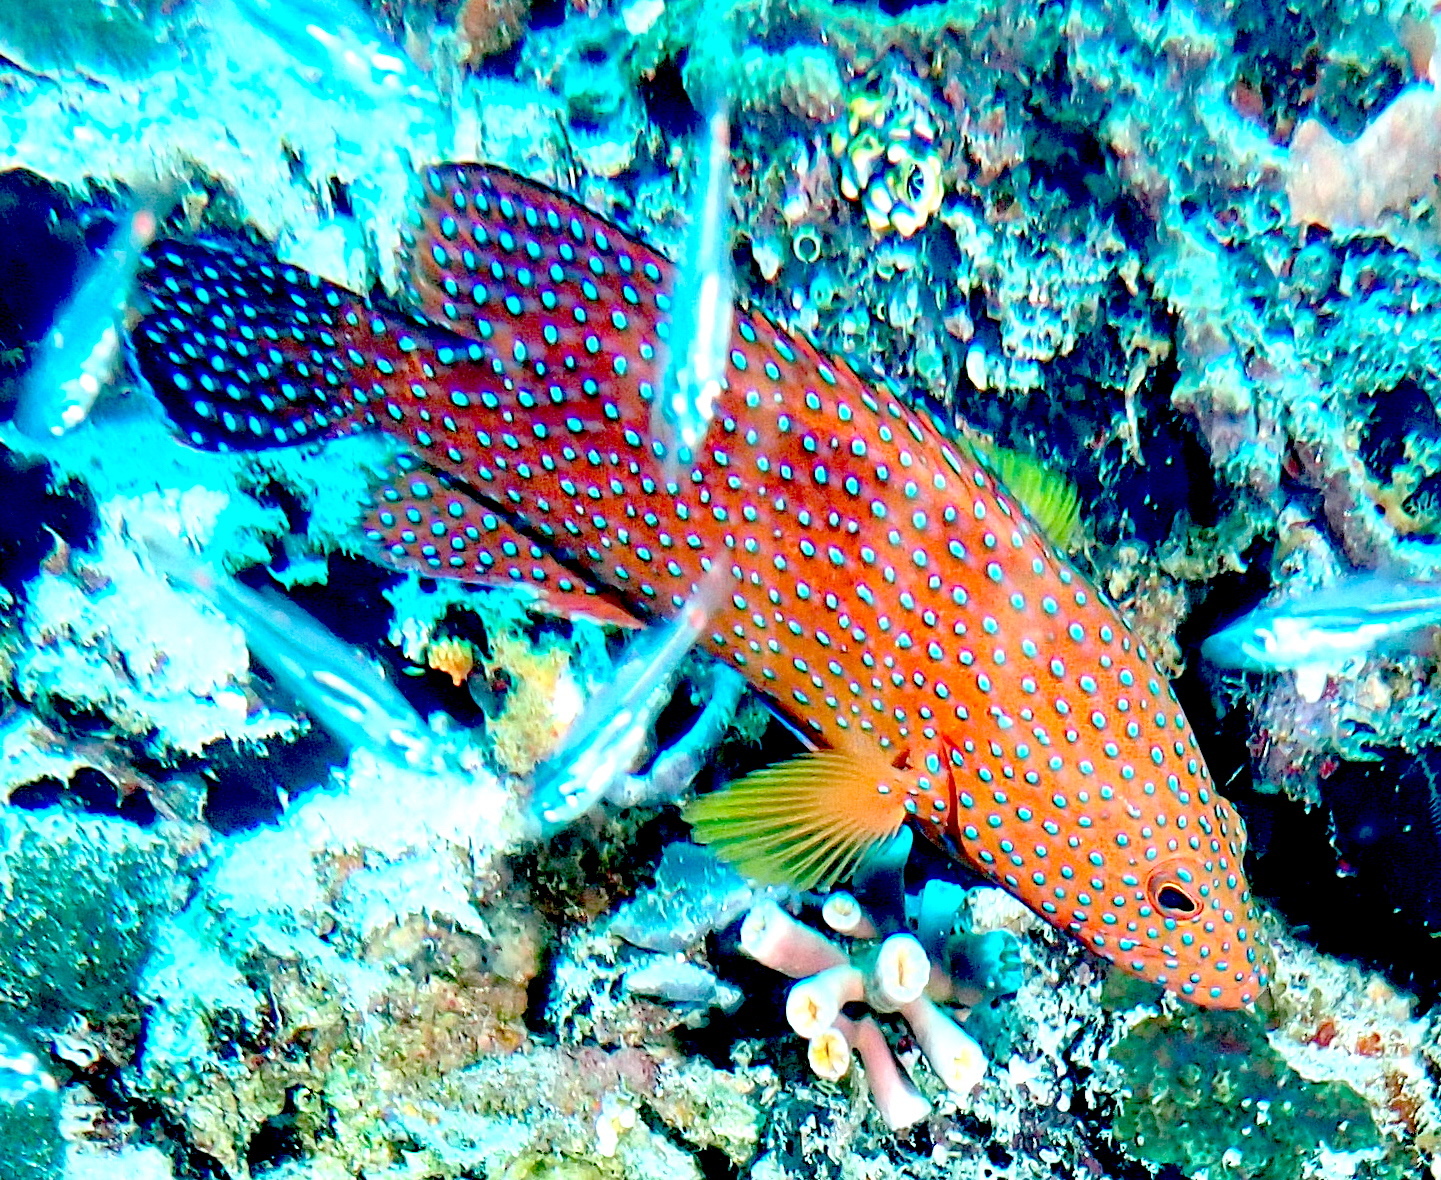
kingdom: Animalia
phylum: Chordata
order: Perciformes
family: Serranidae
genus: Cephalopholis
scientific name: Cephalopholis miniata
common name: Coral hind
